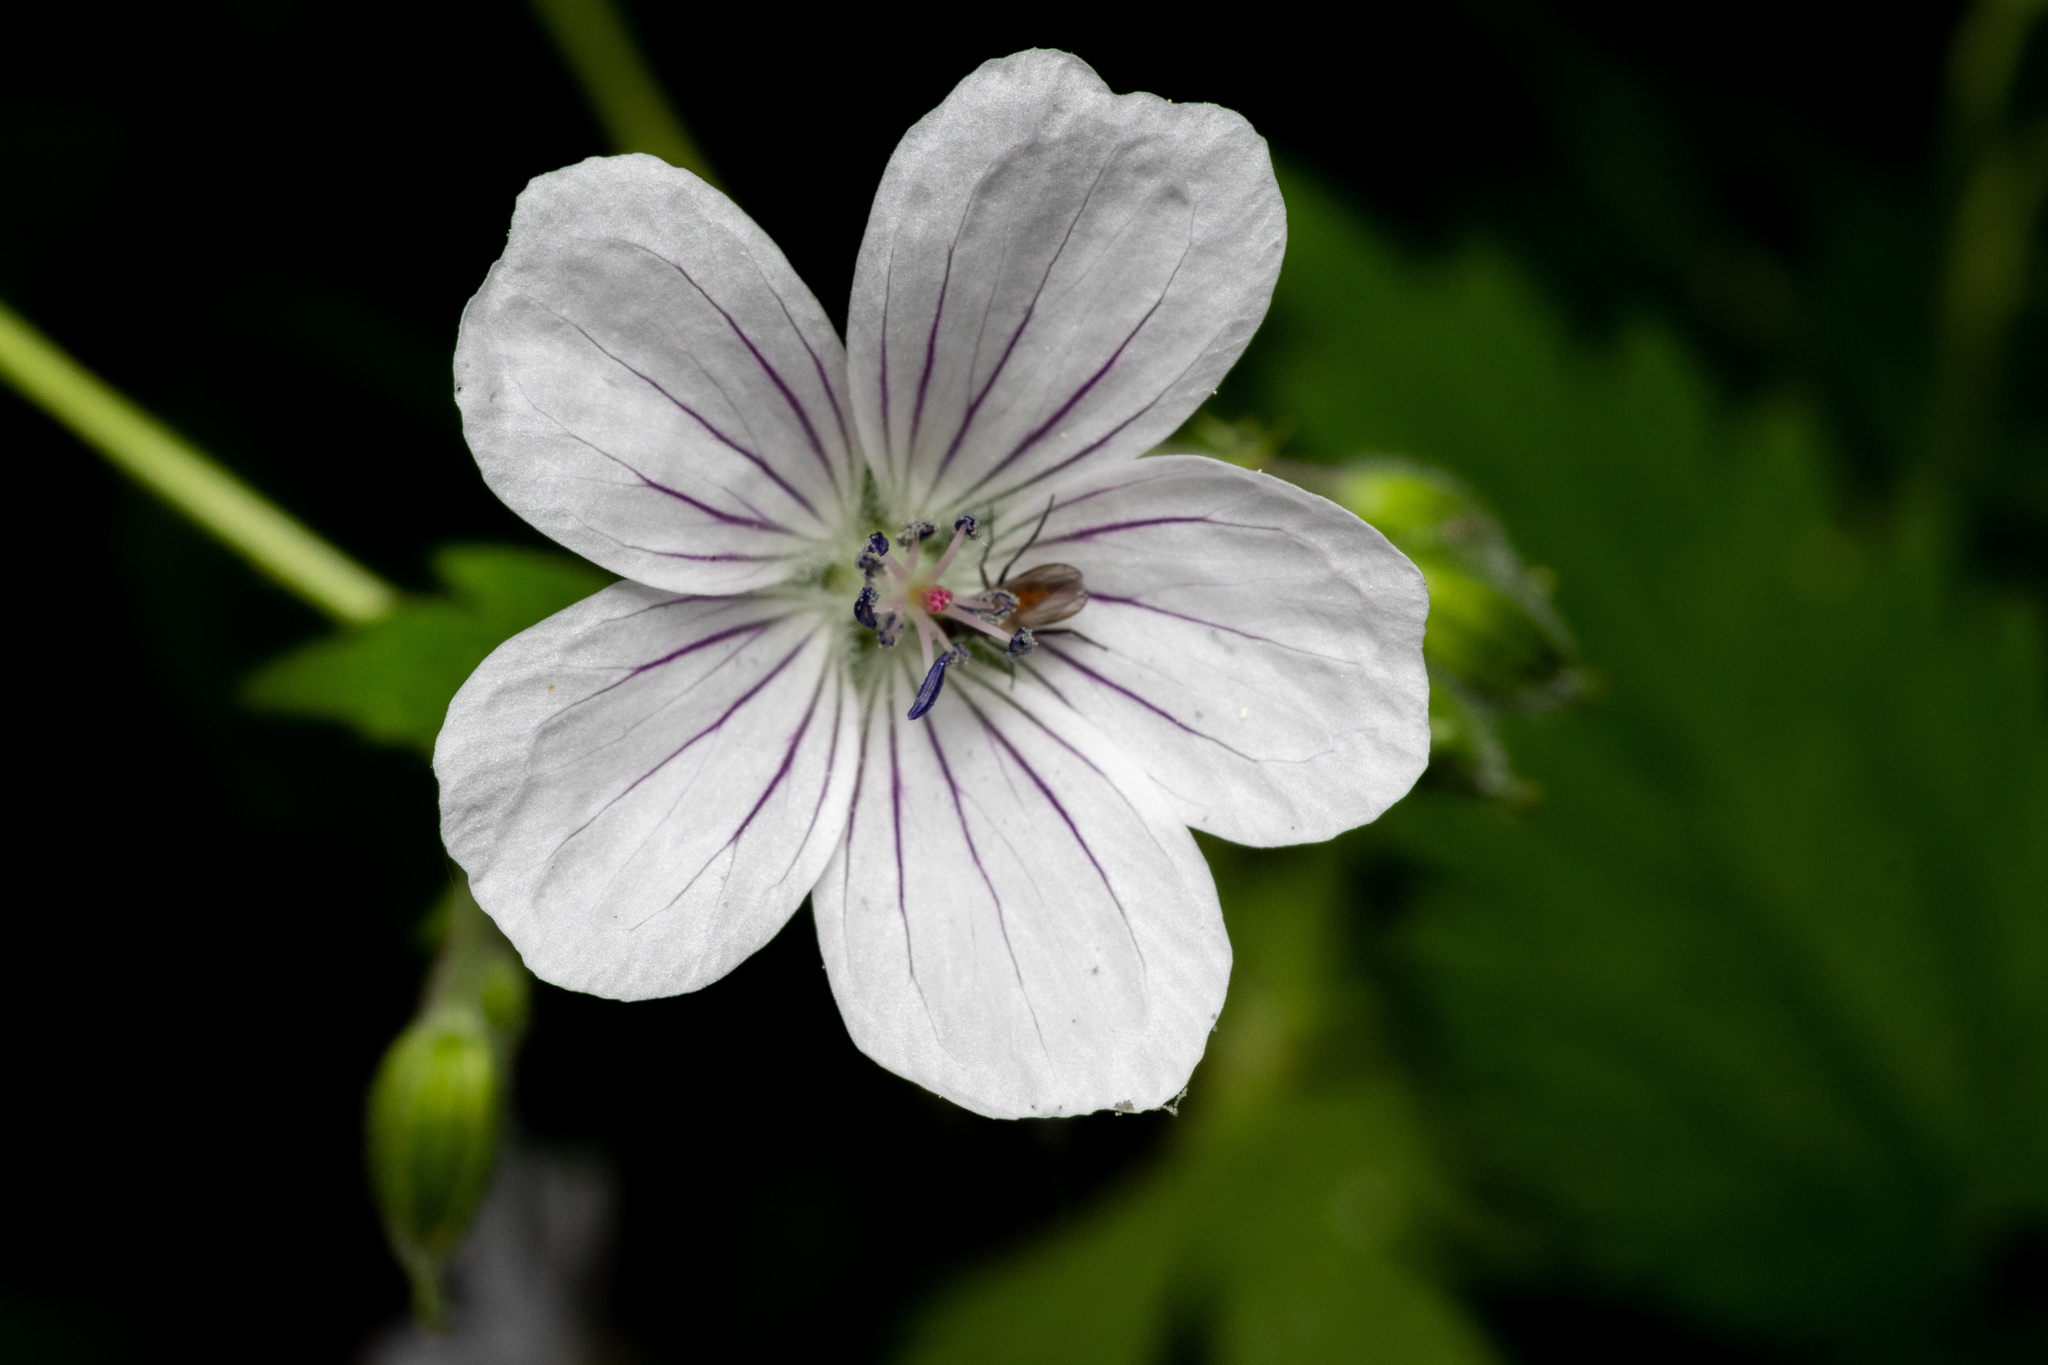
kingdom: Plantae
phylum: Tracheophyta
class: Magnoliopsida
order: Geraniales
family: Geraniaceae
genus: Geranium
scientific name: Geranium sylvaticum
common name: Wood crane's-bill
